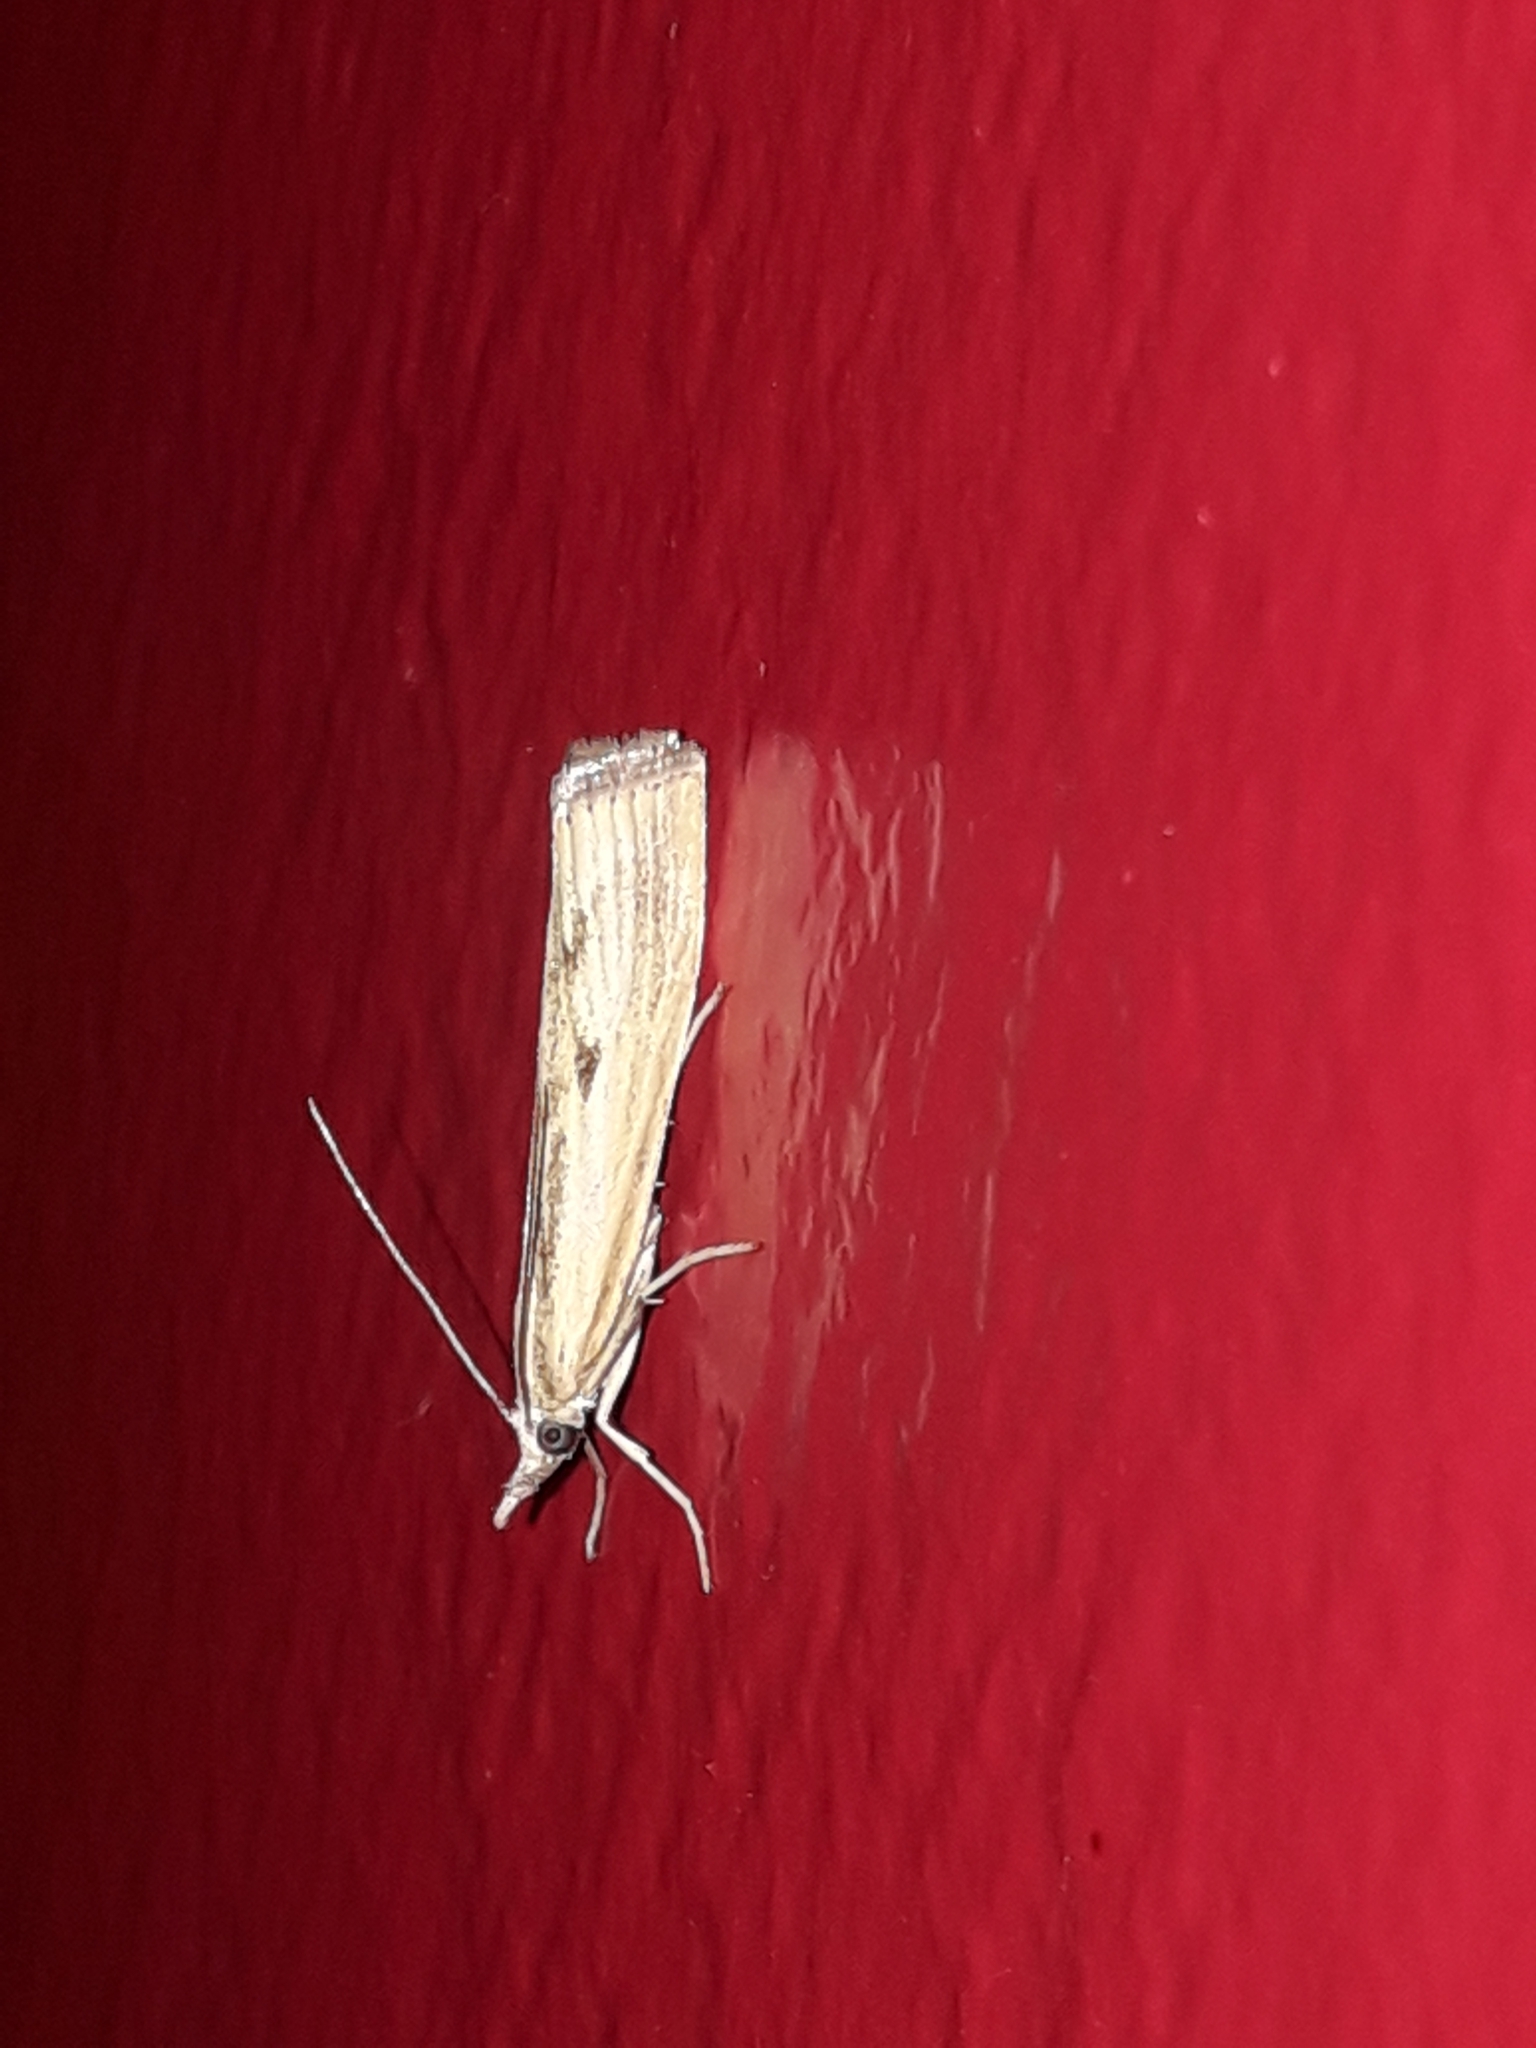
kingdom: Animalia
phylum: Arthropoda
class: Insecta
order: Lepidoptera
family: Crambidae
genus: Agriphila
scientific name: Agriphila inquinatella
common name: Barred grass-veneer
